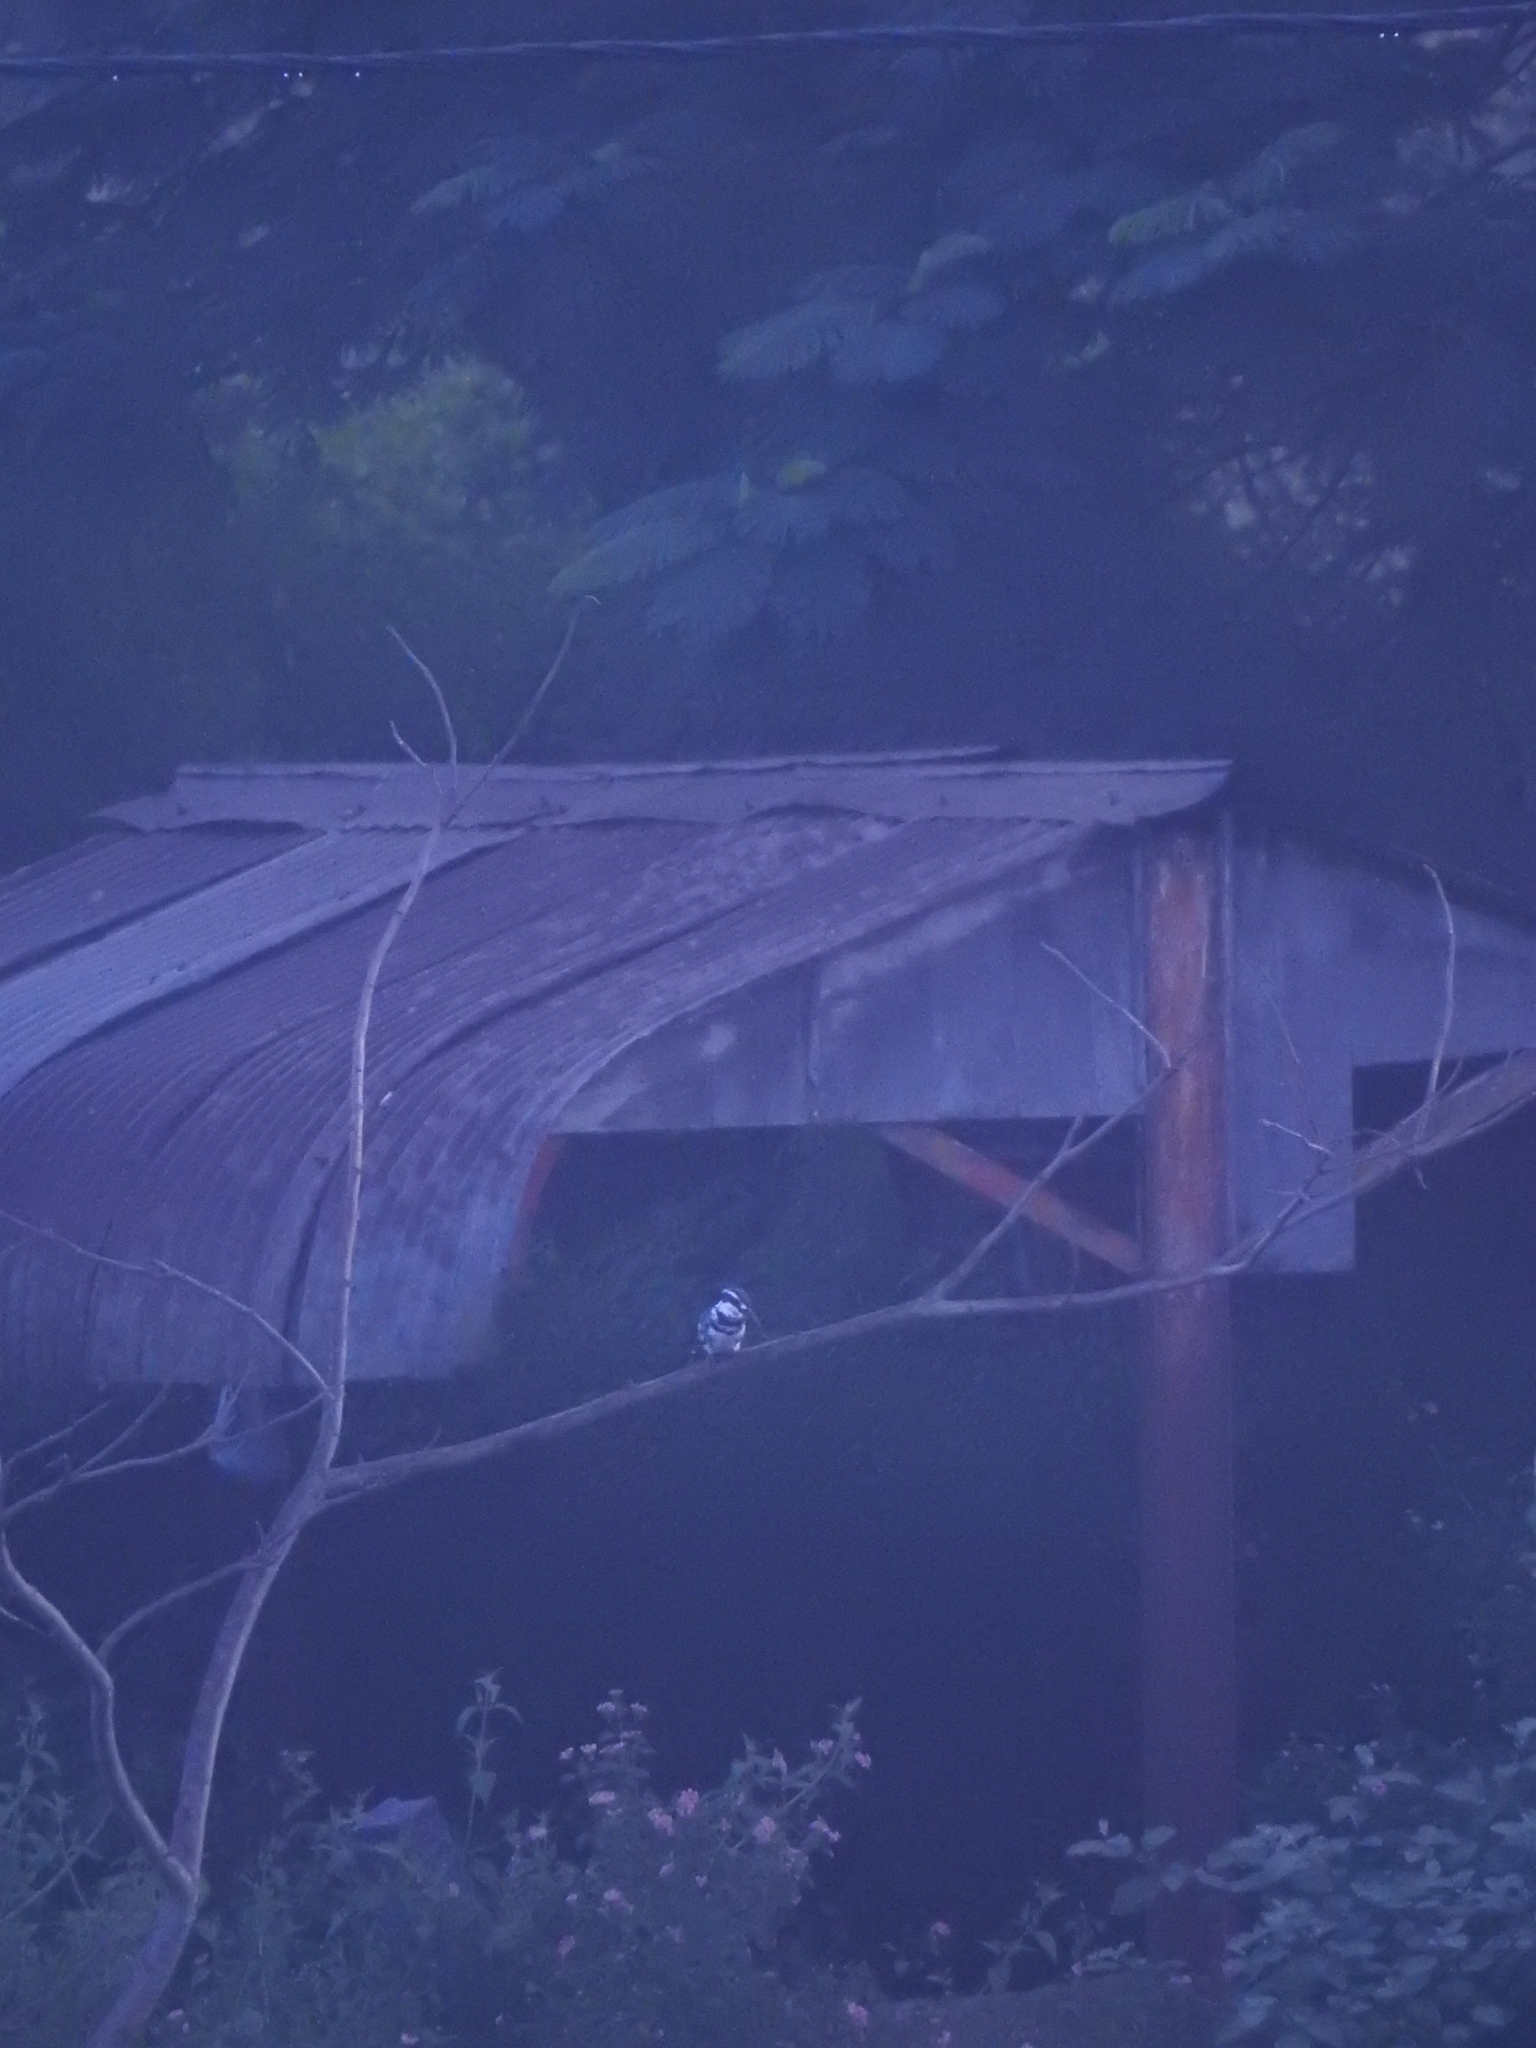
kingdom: Animalia
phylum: Chordata
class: Aves
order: Coraciiformes
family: Alcedinidae
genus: Ceryle
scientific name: Ceryle rudis
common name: Pied kingfisher
